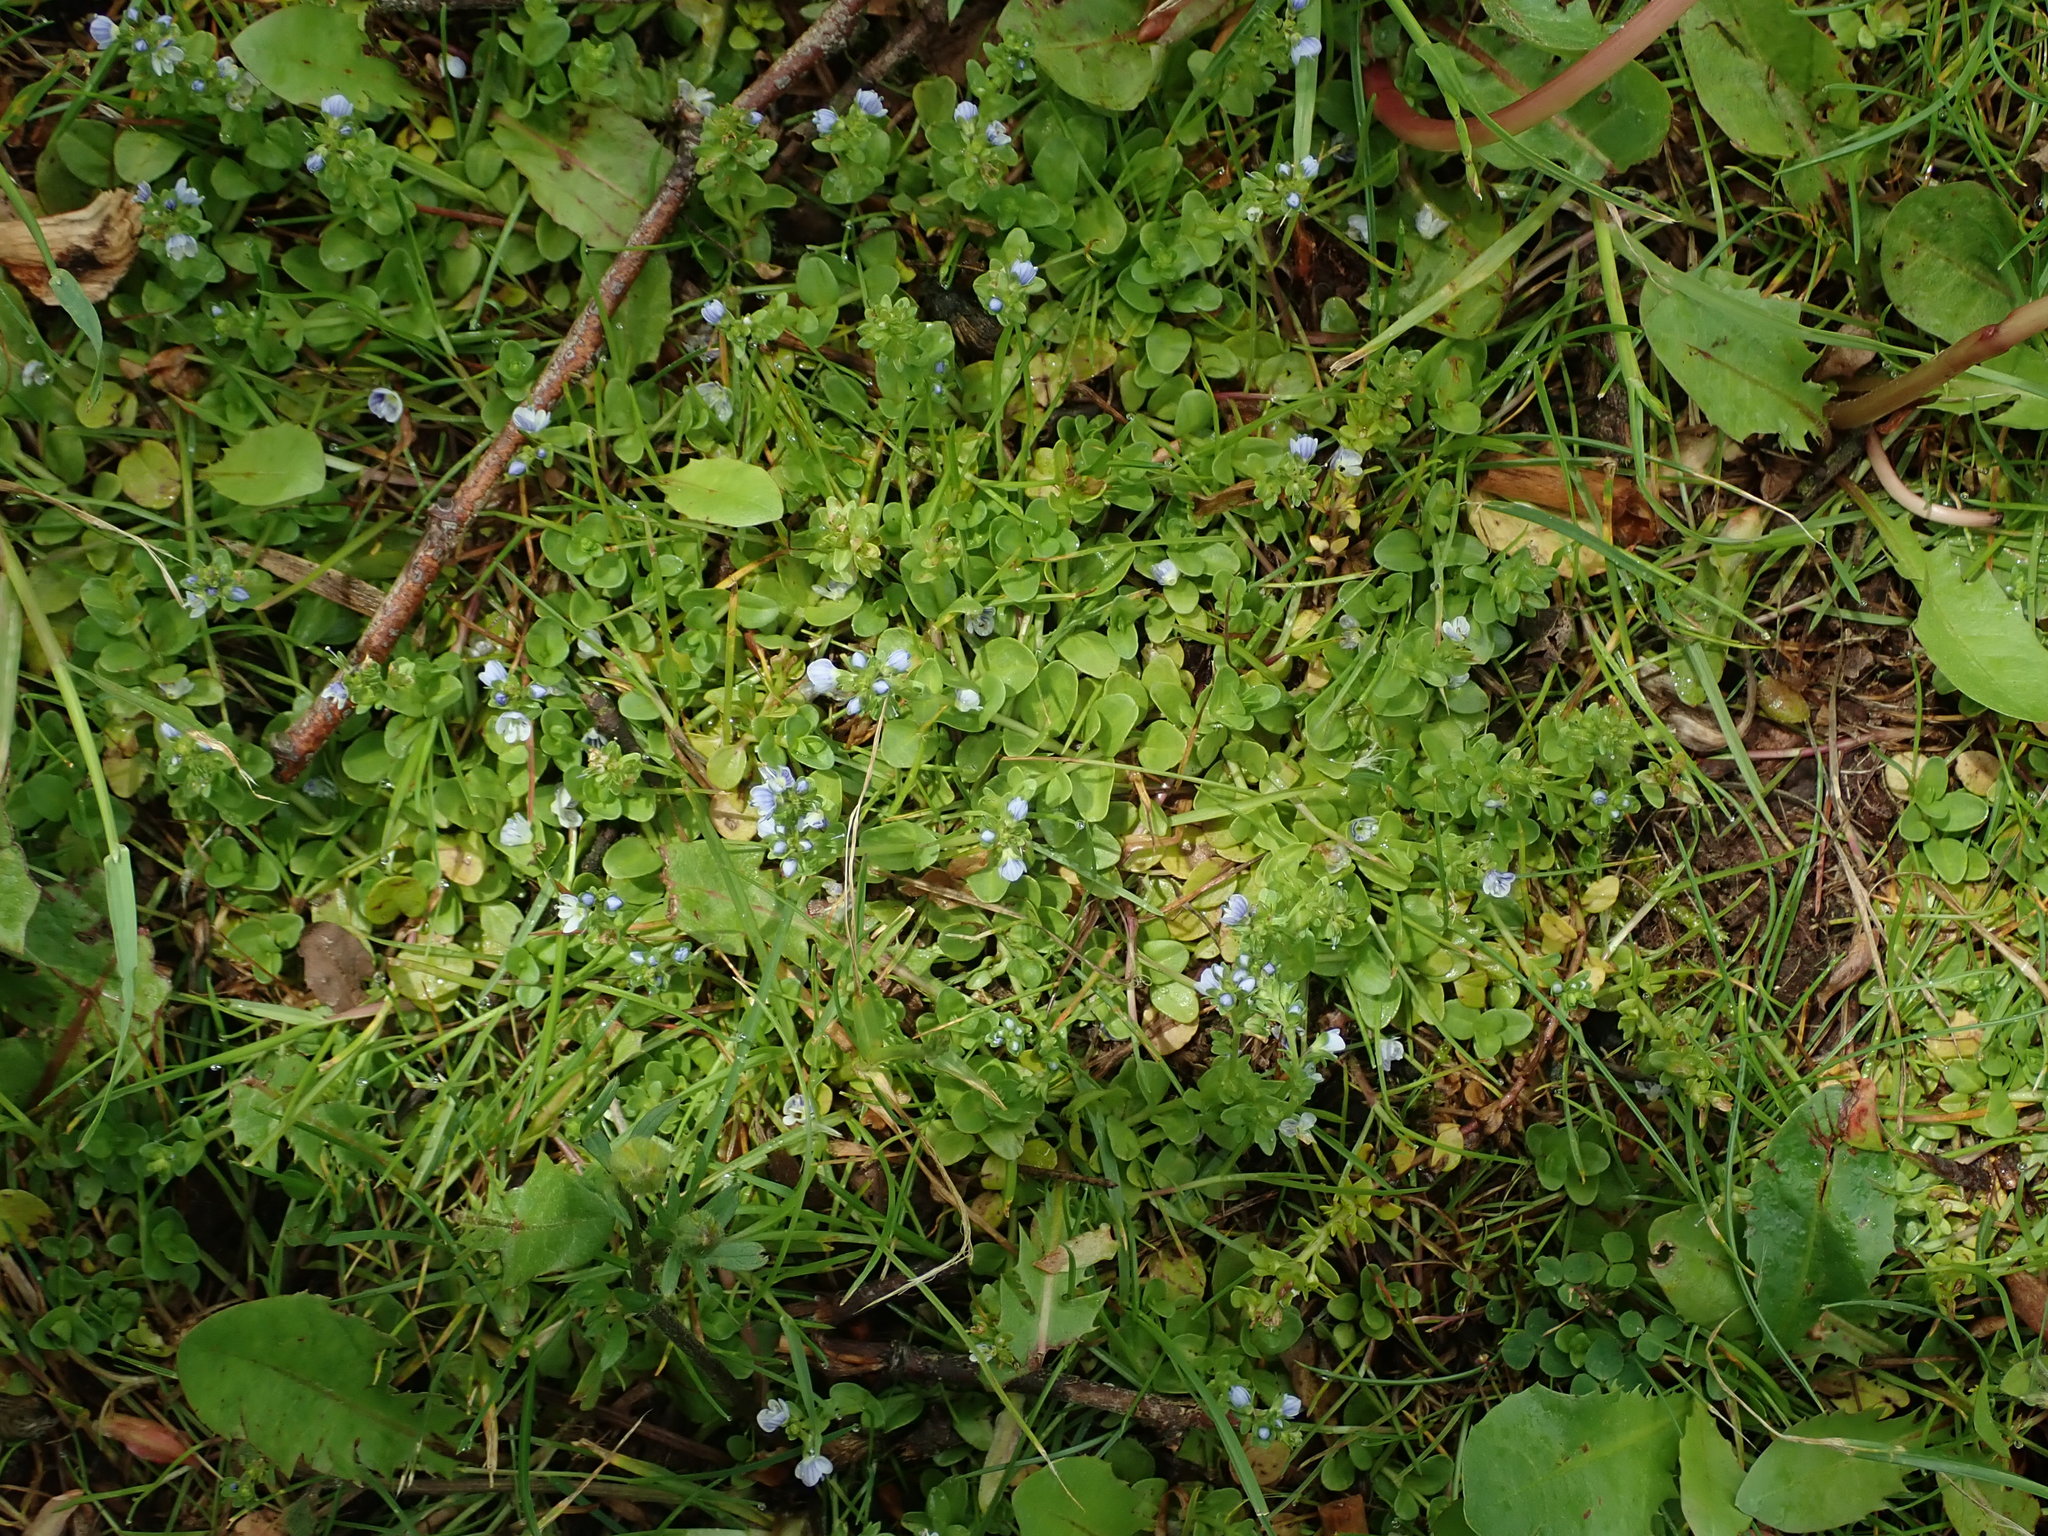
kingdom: Plantae
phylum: Tracheophyta
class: Magnoliopsida
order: Lamiales
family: Plantaginaceae
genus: Veronica
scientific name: Veronica serpyllifolia
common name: Thyme-leaved speedwell
